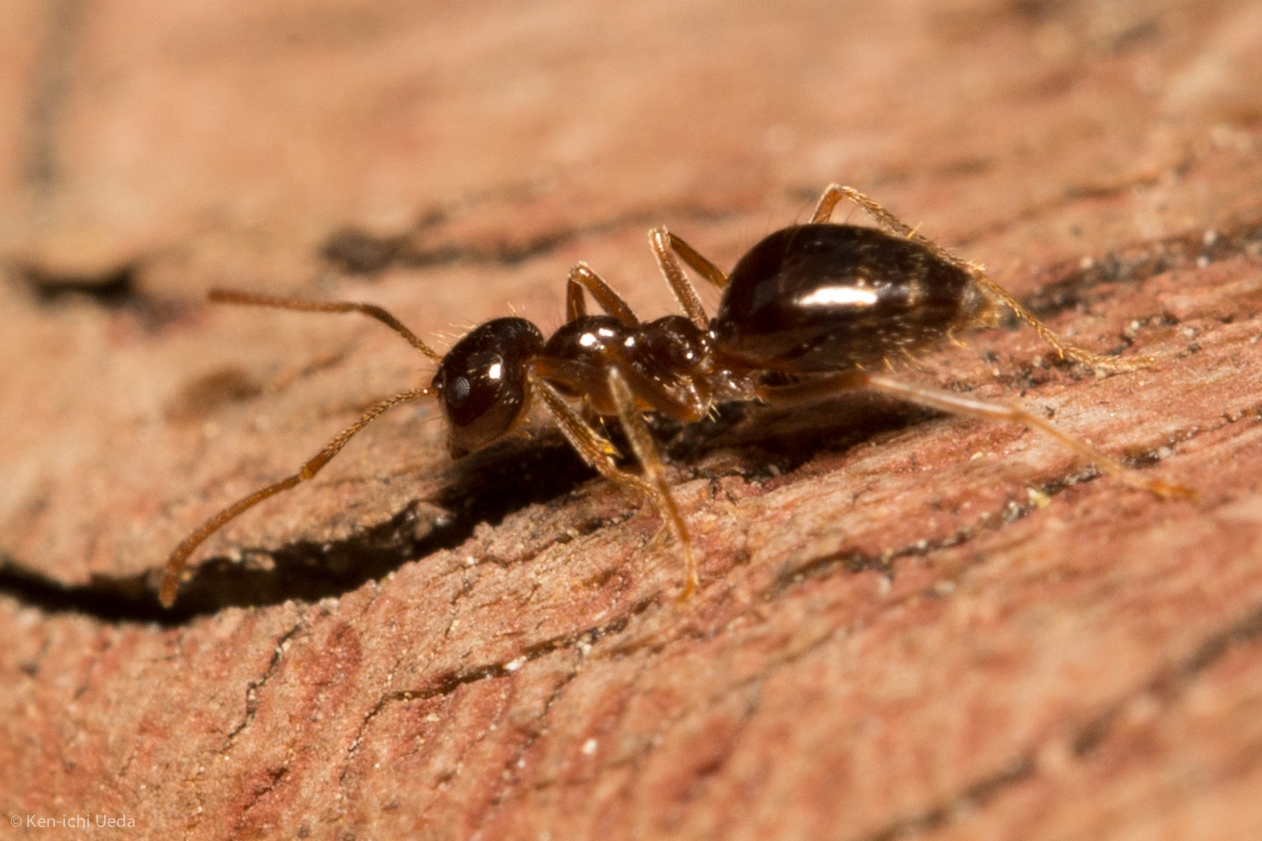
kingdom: Animalia
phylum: Arthropoda
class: Insecta
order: Hymenoptera
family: Formicidae
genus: Prenolepis
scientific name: Prenolepis imparis
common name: Small honey ant
